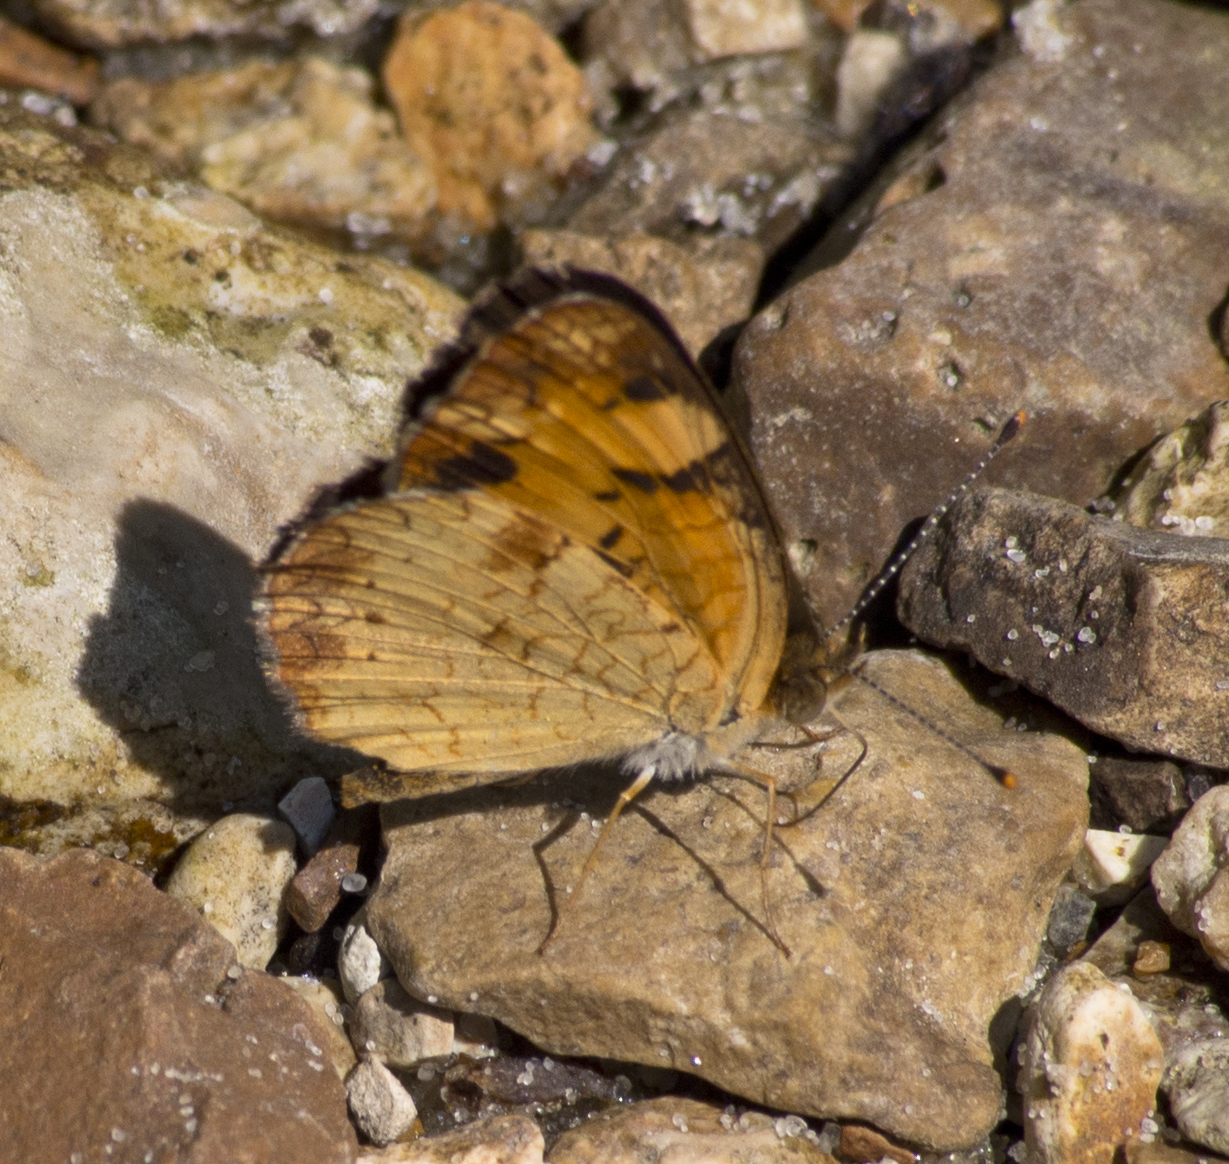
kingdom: Animalia
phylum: Arthropoda
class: Insecta
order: Lepidoptera
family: Nymphalidae
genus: Phyciodes
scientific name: Phyciodes tharos
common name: Pearl crescent
